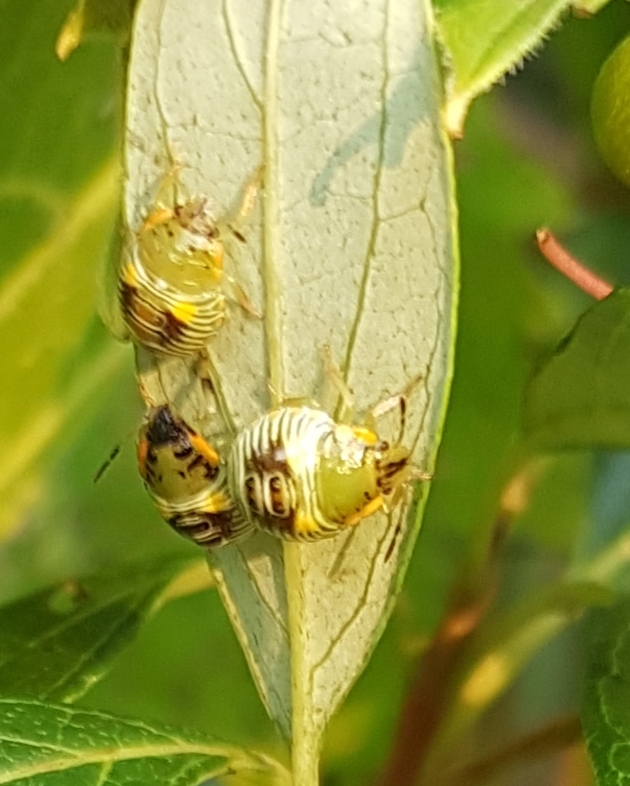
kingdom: Animalia
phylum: Arthropoda
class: Insecta
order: Hemiptera
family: Pentatomidae
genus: Chinavia
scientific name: Chinavia hilaris
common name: Green stink bug
